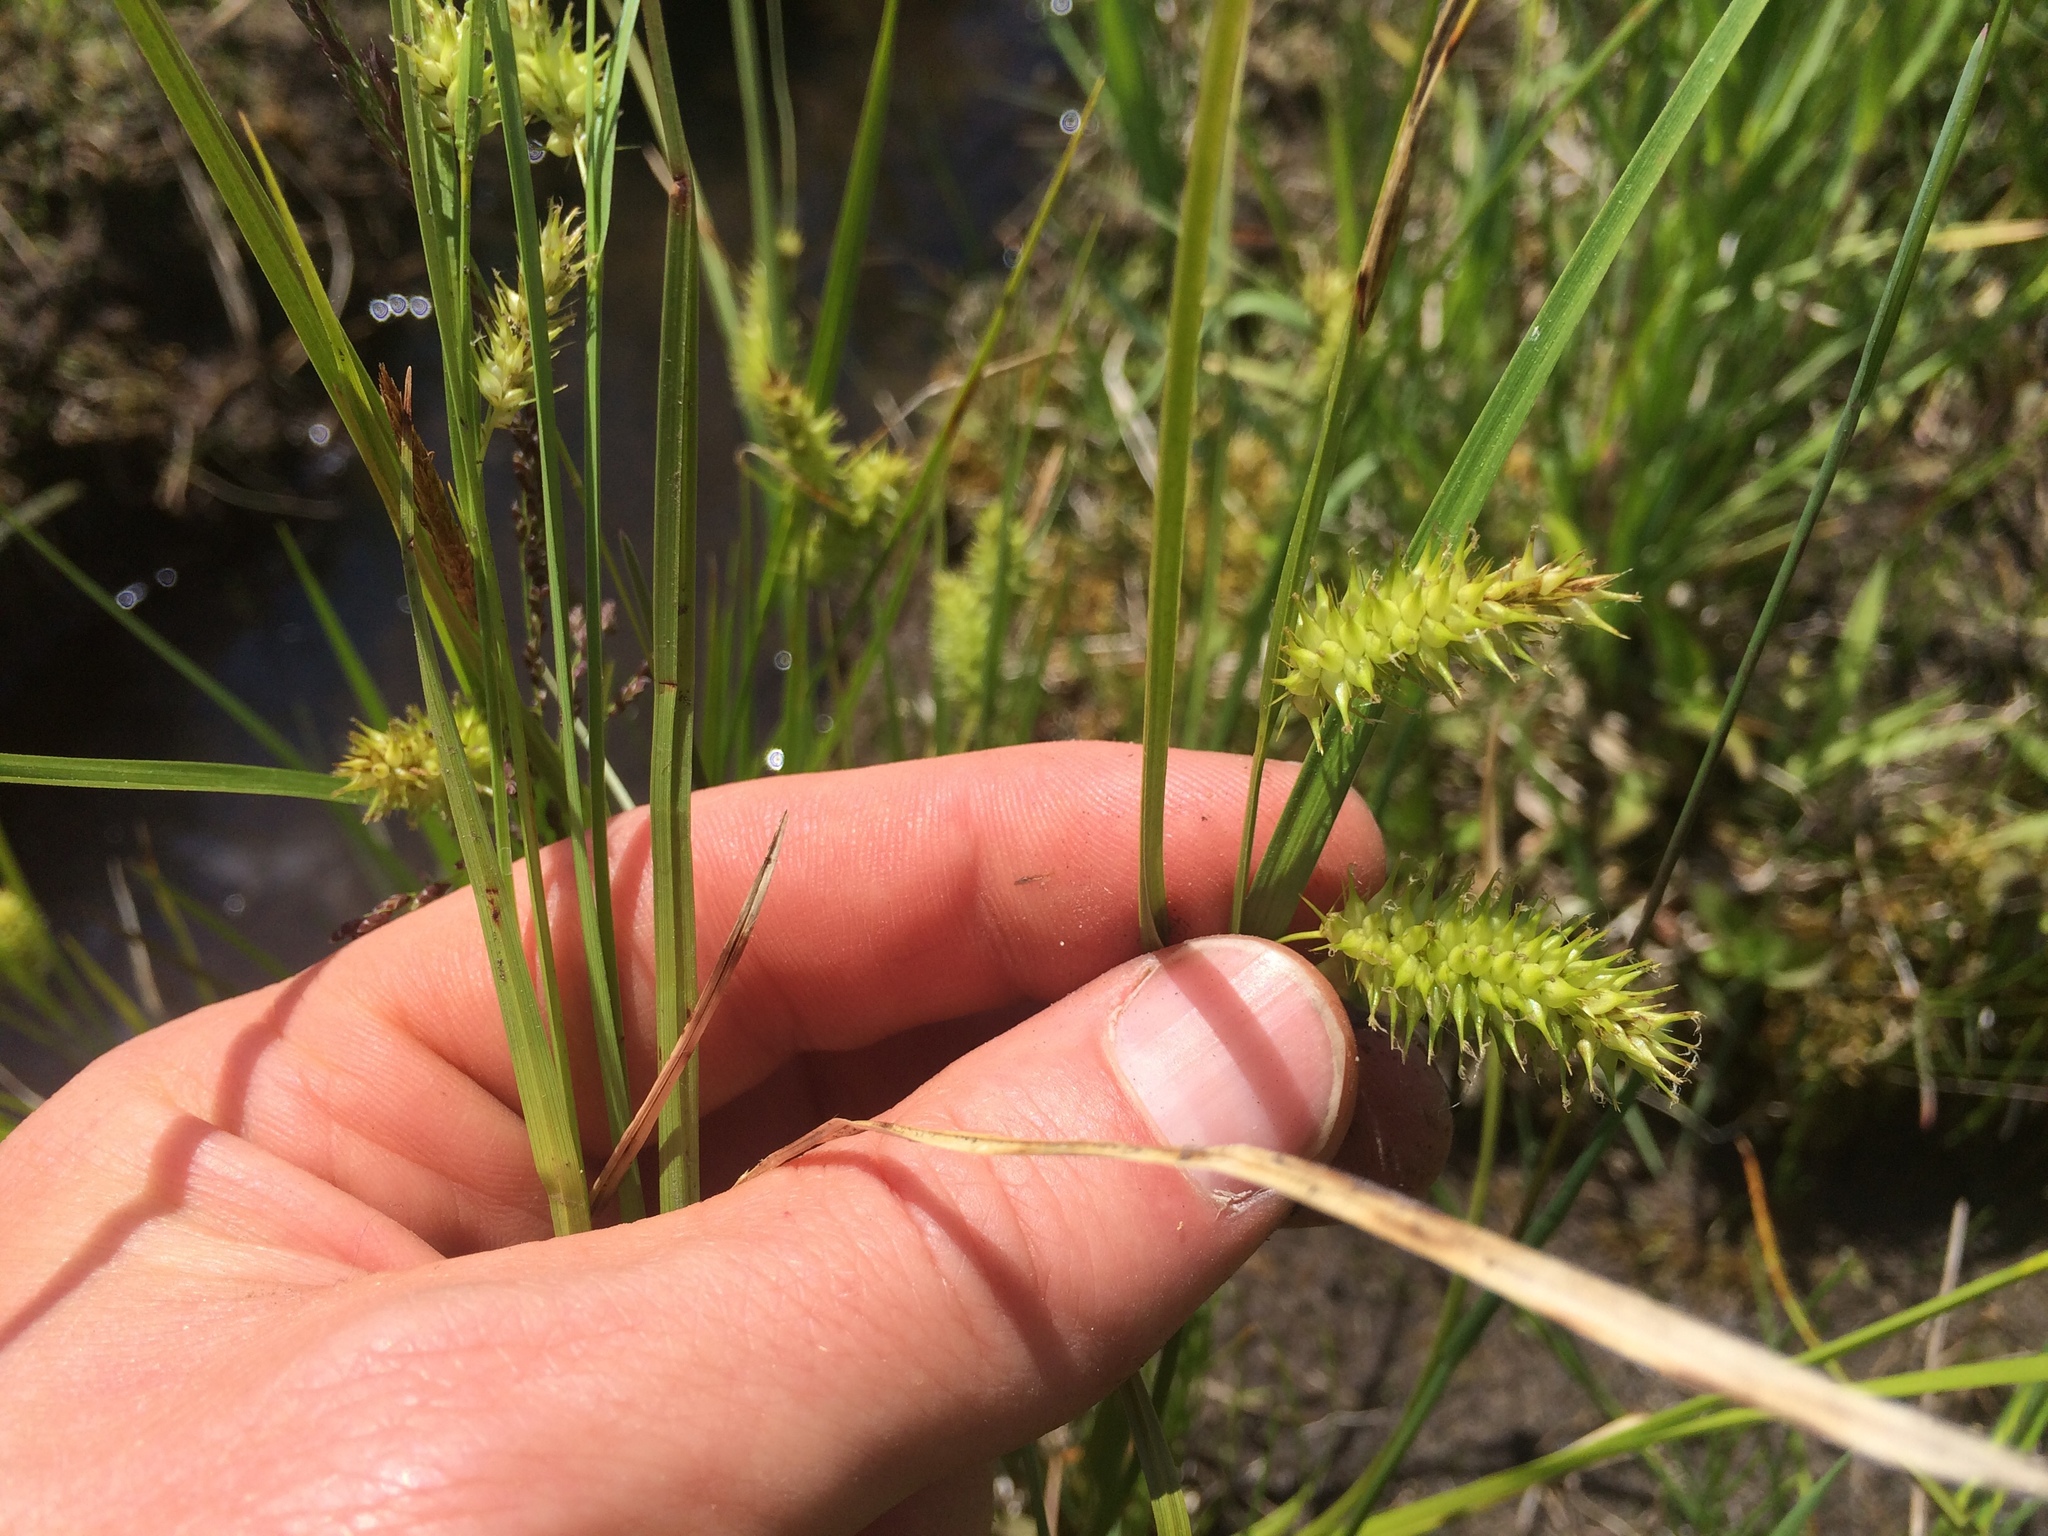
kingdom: Plantae
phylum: Tracheophyta
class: Liliopsida
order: Poales
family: Cyperaceae
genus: Carex
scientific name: Carex hystericina
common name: Bottlebrush sedge
